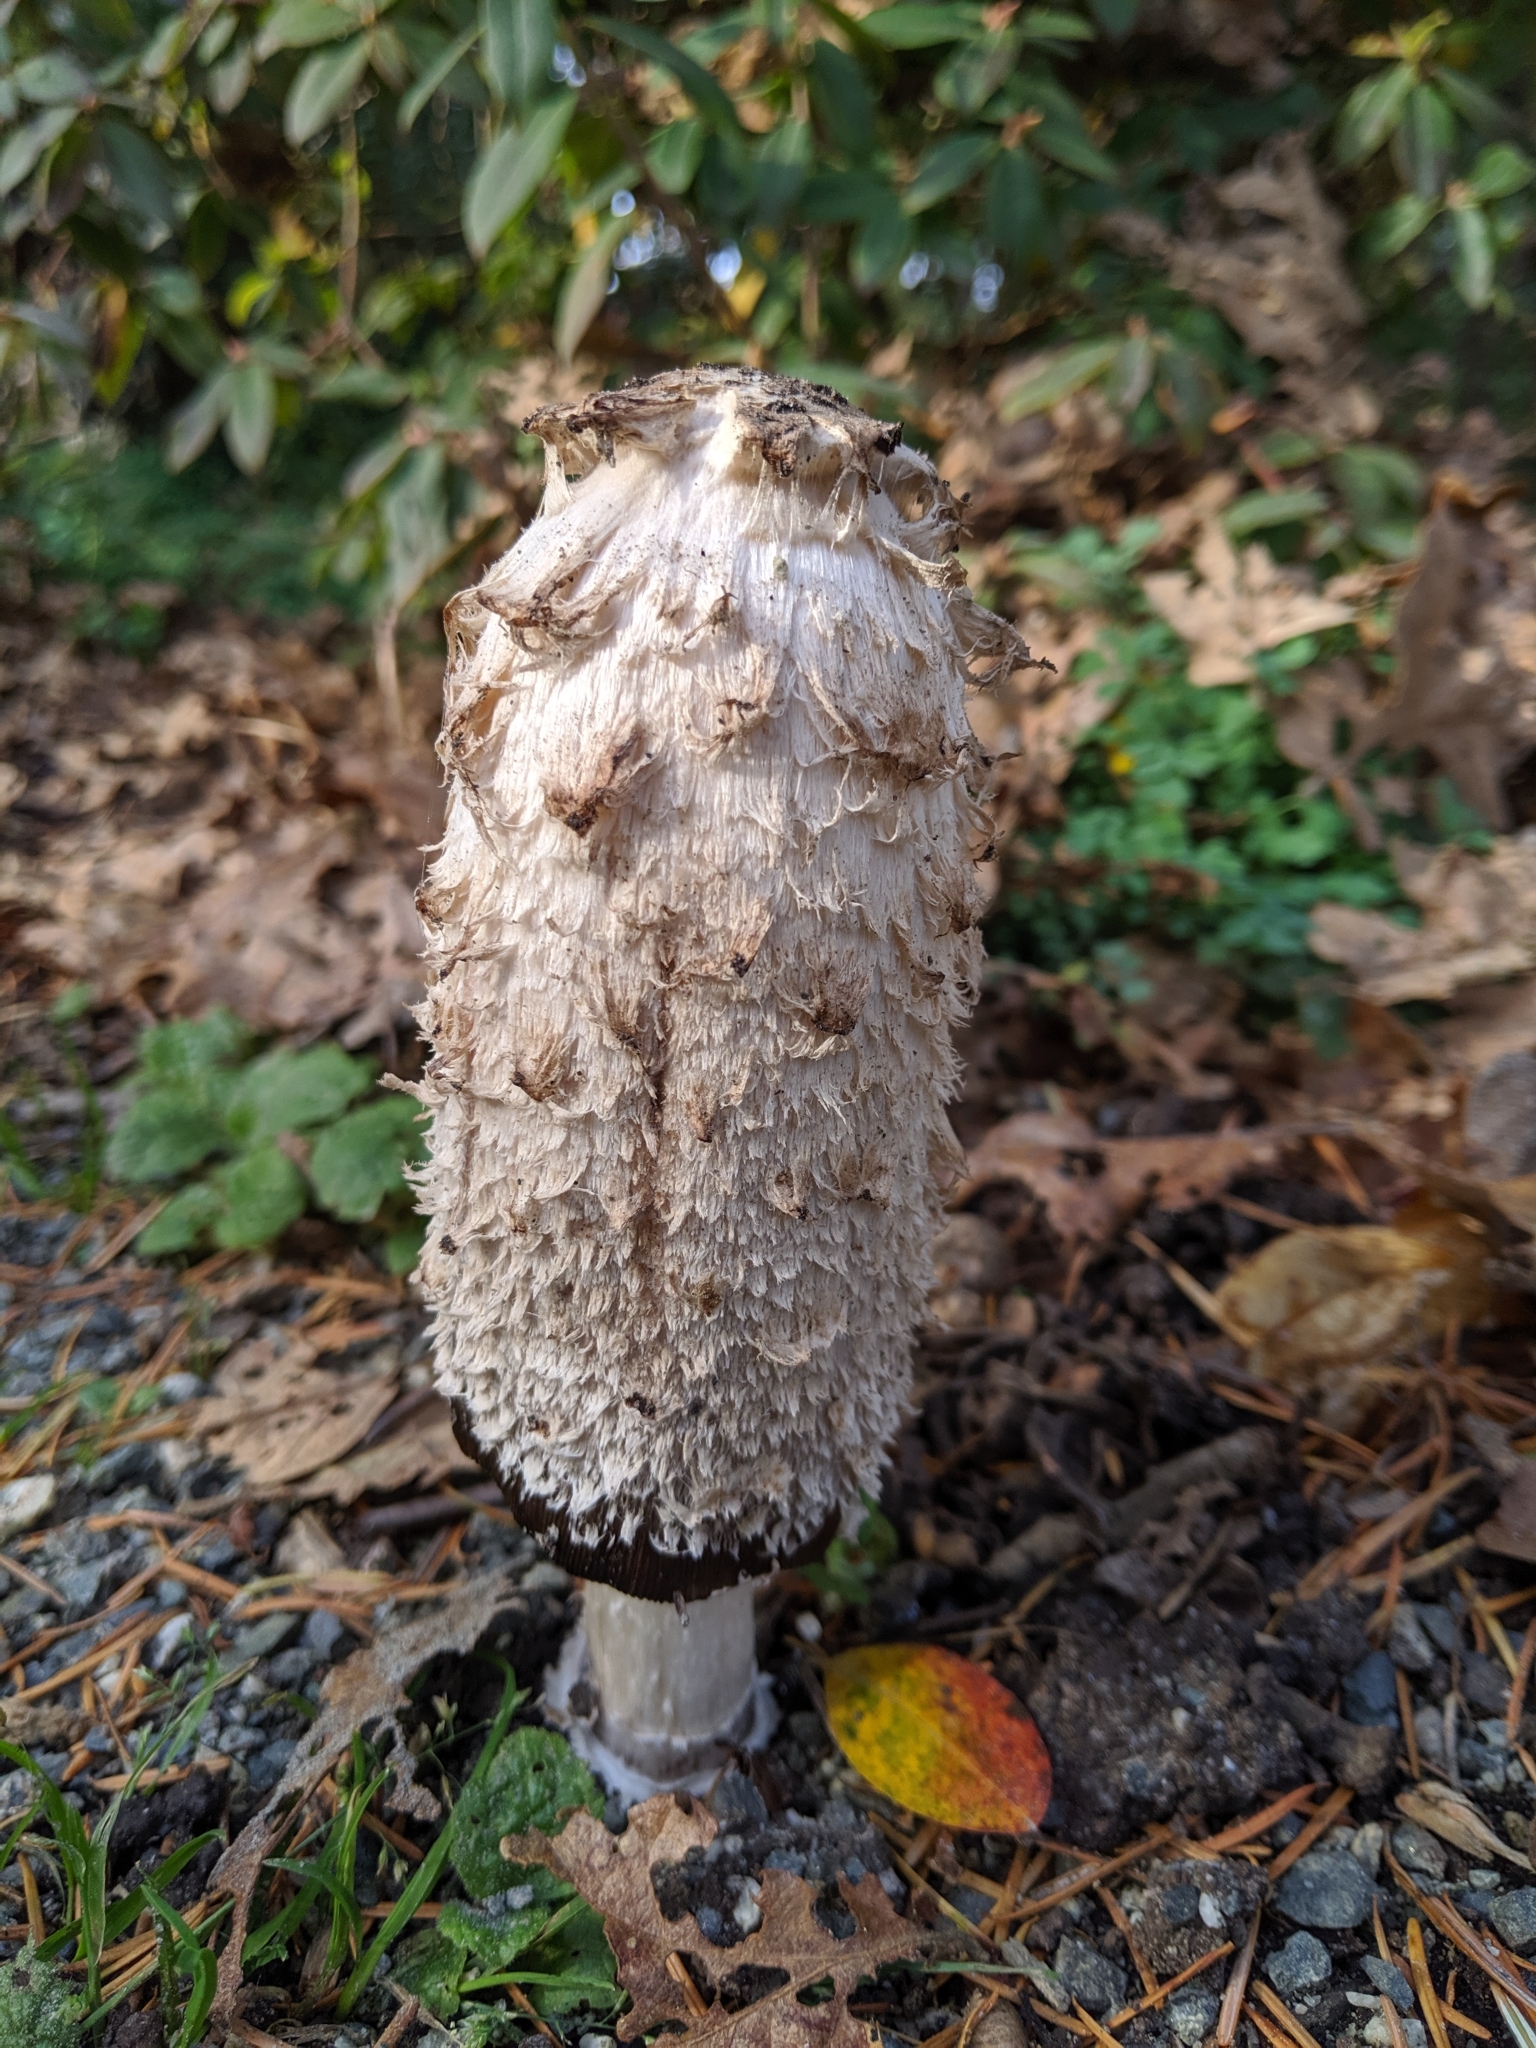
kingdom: Fungi
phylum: Basidiomycota
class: Agaricomycetes
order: Agaricales
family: Agaricaceae
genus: Coprinus
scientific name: Coprinus comatus
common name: Lawyer's wig
